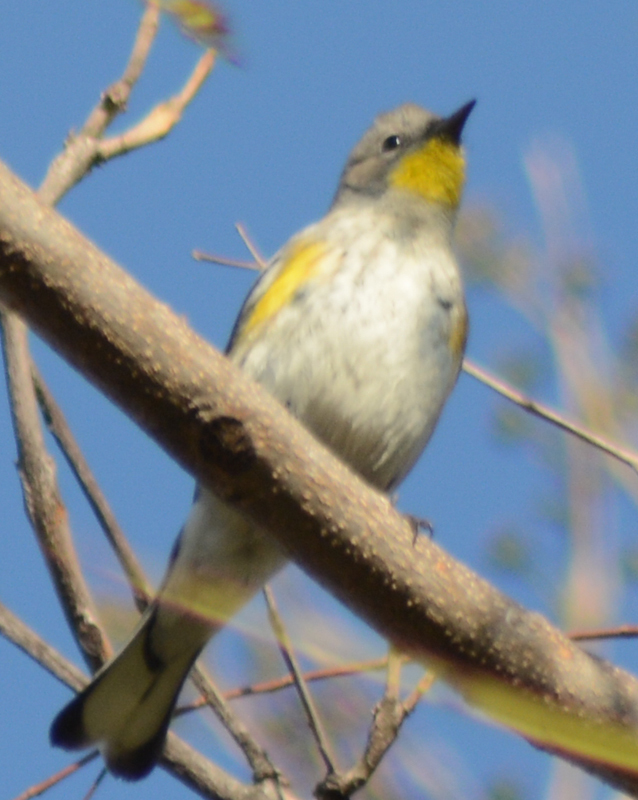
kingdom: Animalia
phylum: Chordata
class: Aves
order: Passeriformes
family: Parulidae
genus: Setophaga
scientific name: Setophaga coronata
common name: Myrtle warbler
